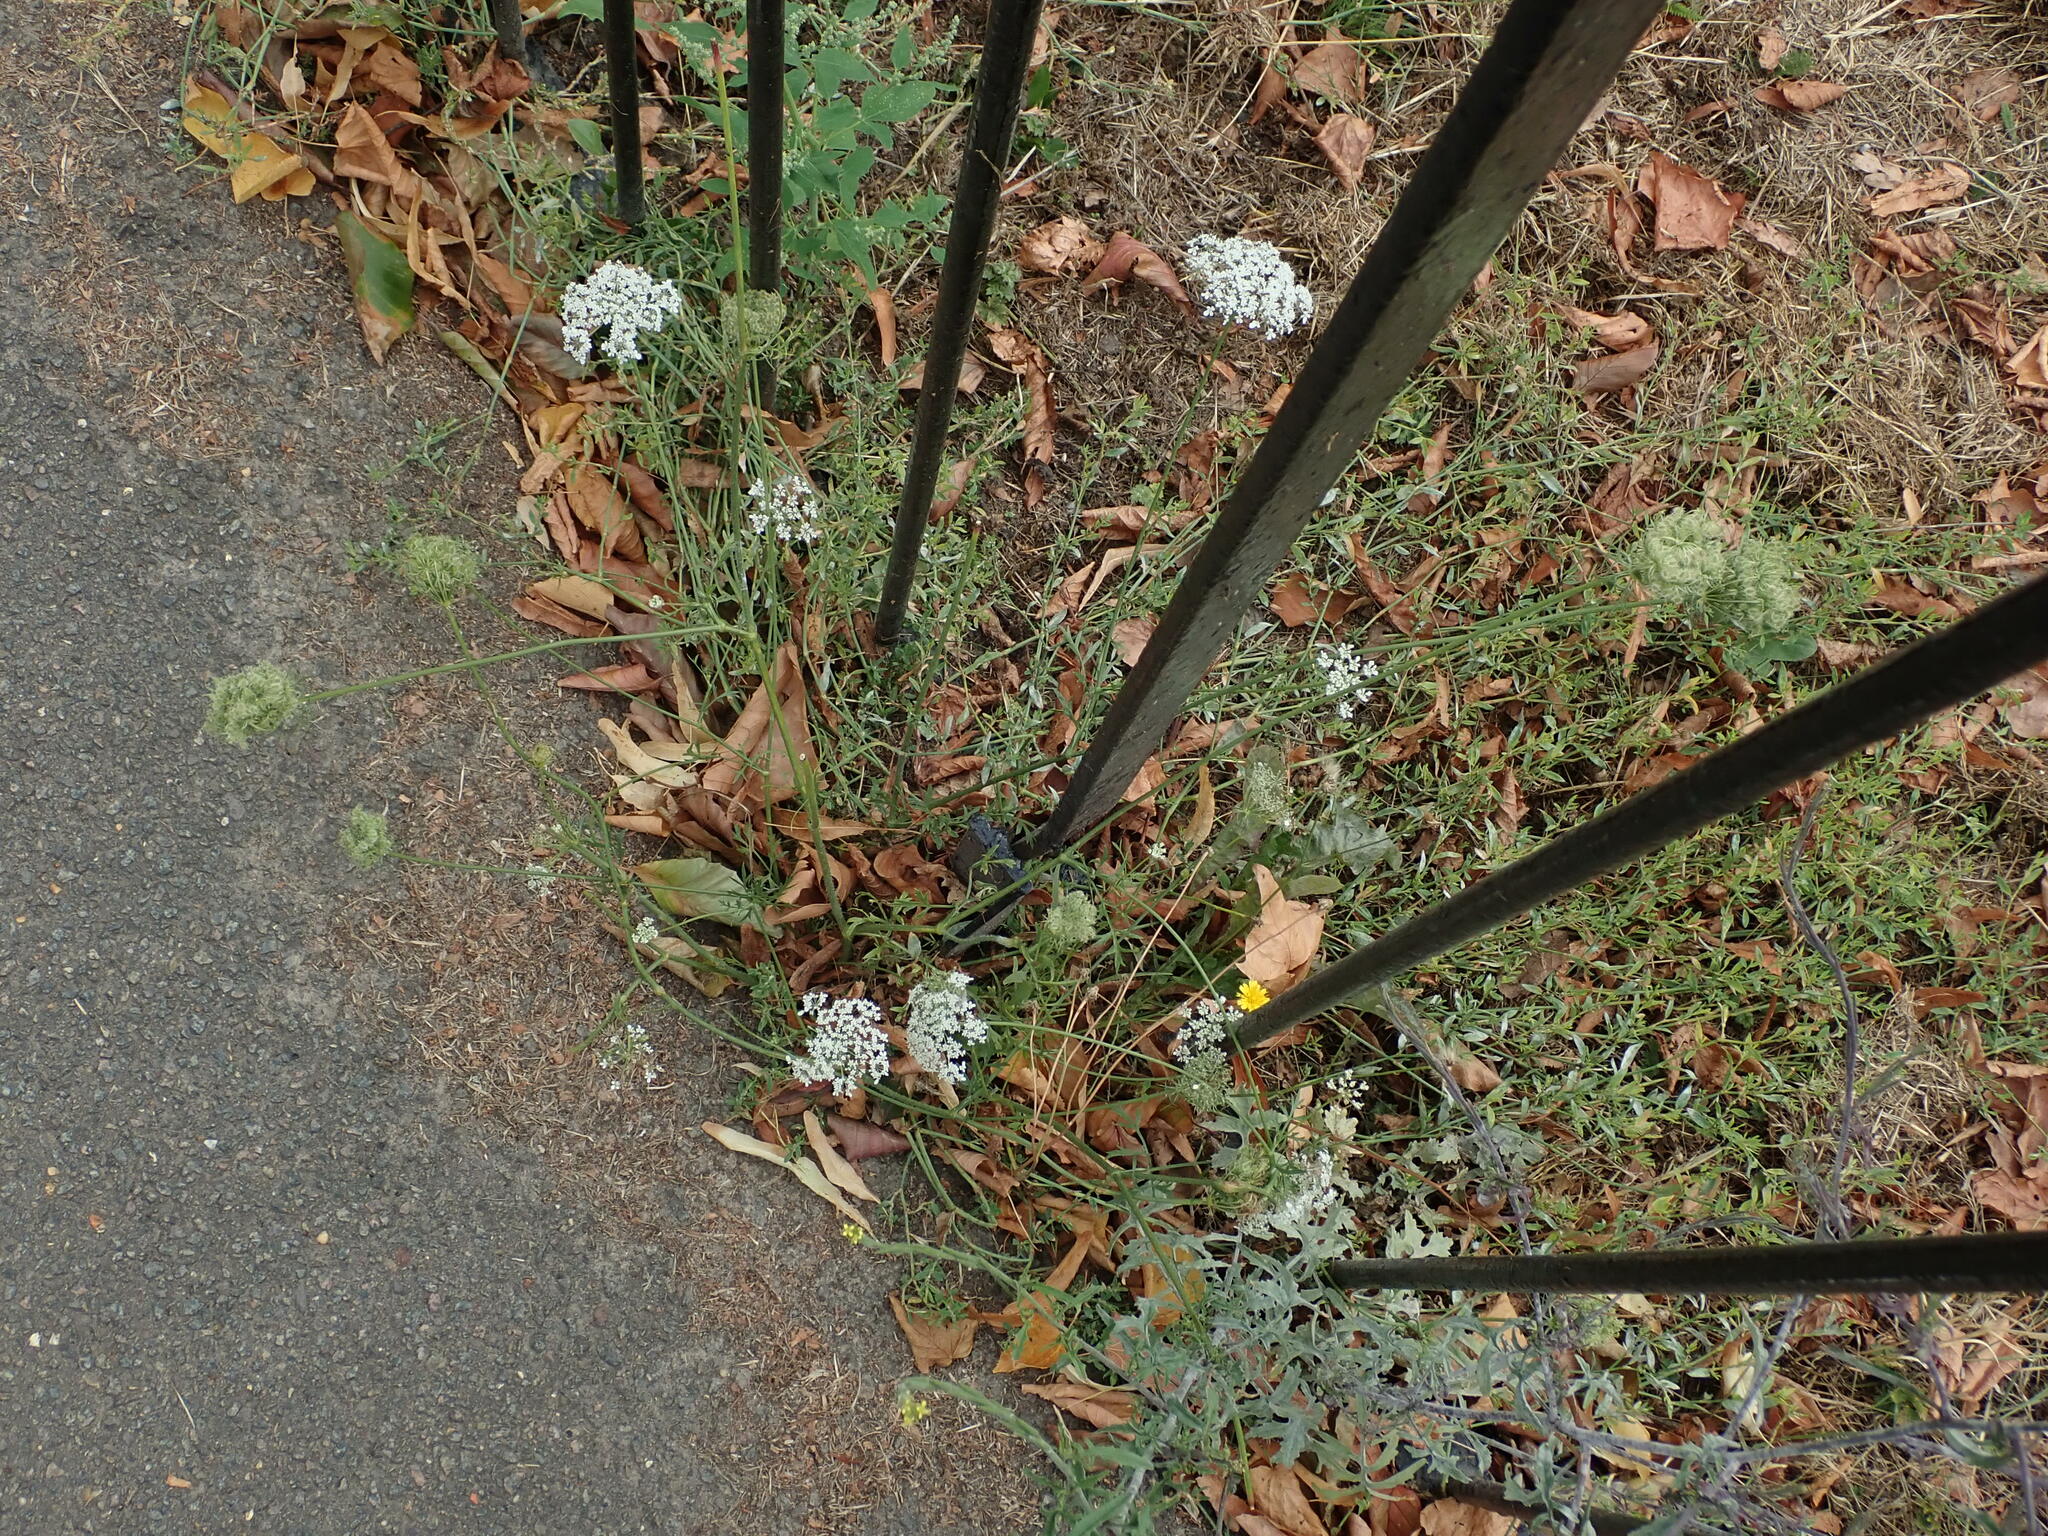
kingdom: Plantae
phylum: Tracheophyta
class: Magnoliopsida
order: Apiales
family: Apiaceae
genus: Daucus
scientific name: Daucus carota
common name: Wild carrot
